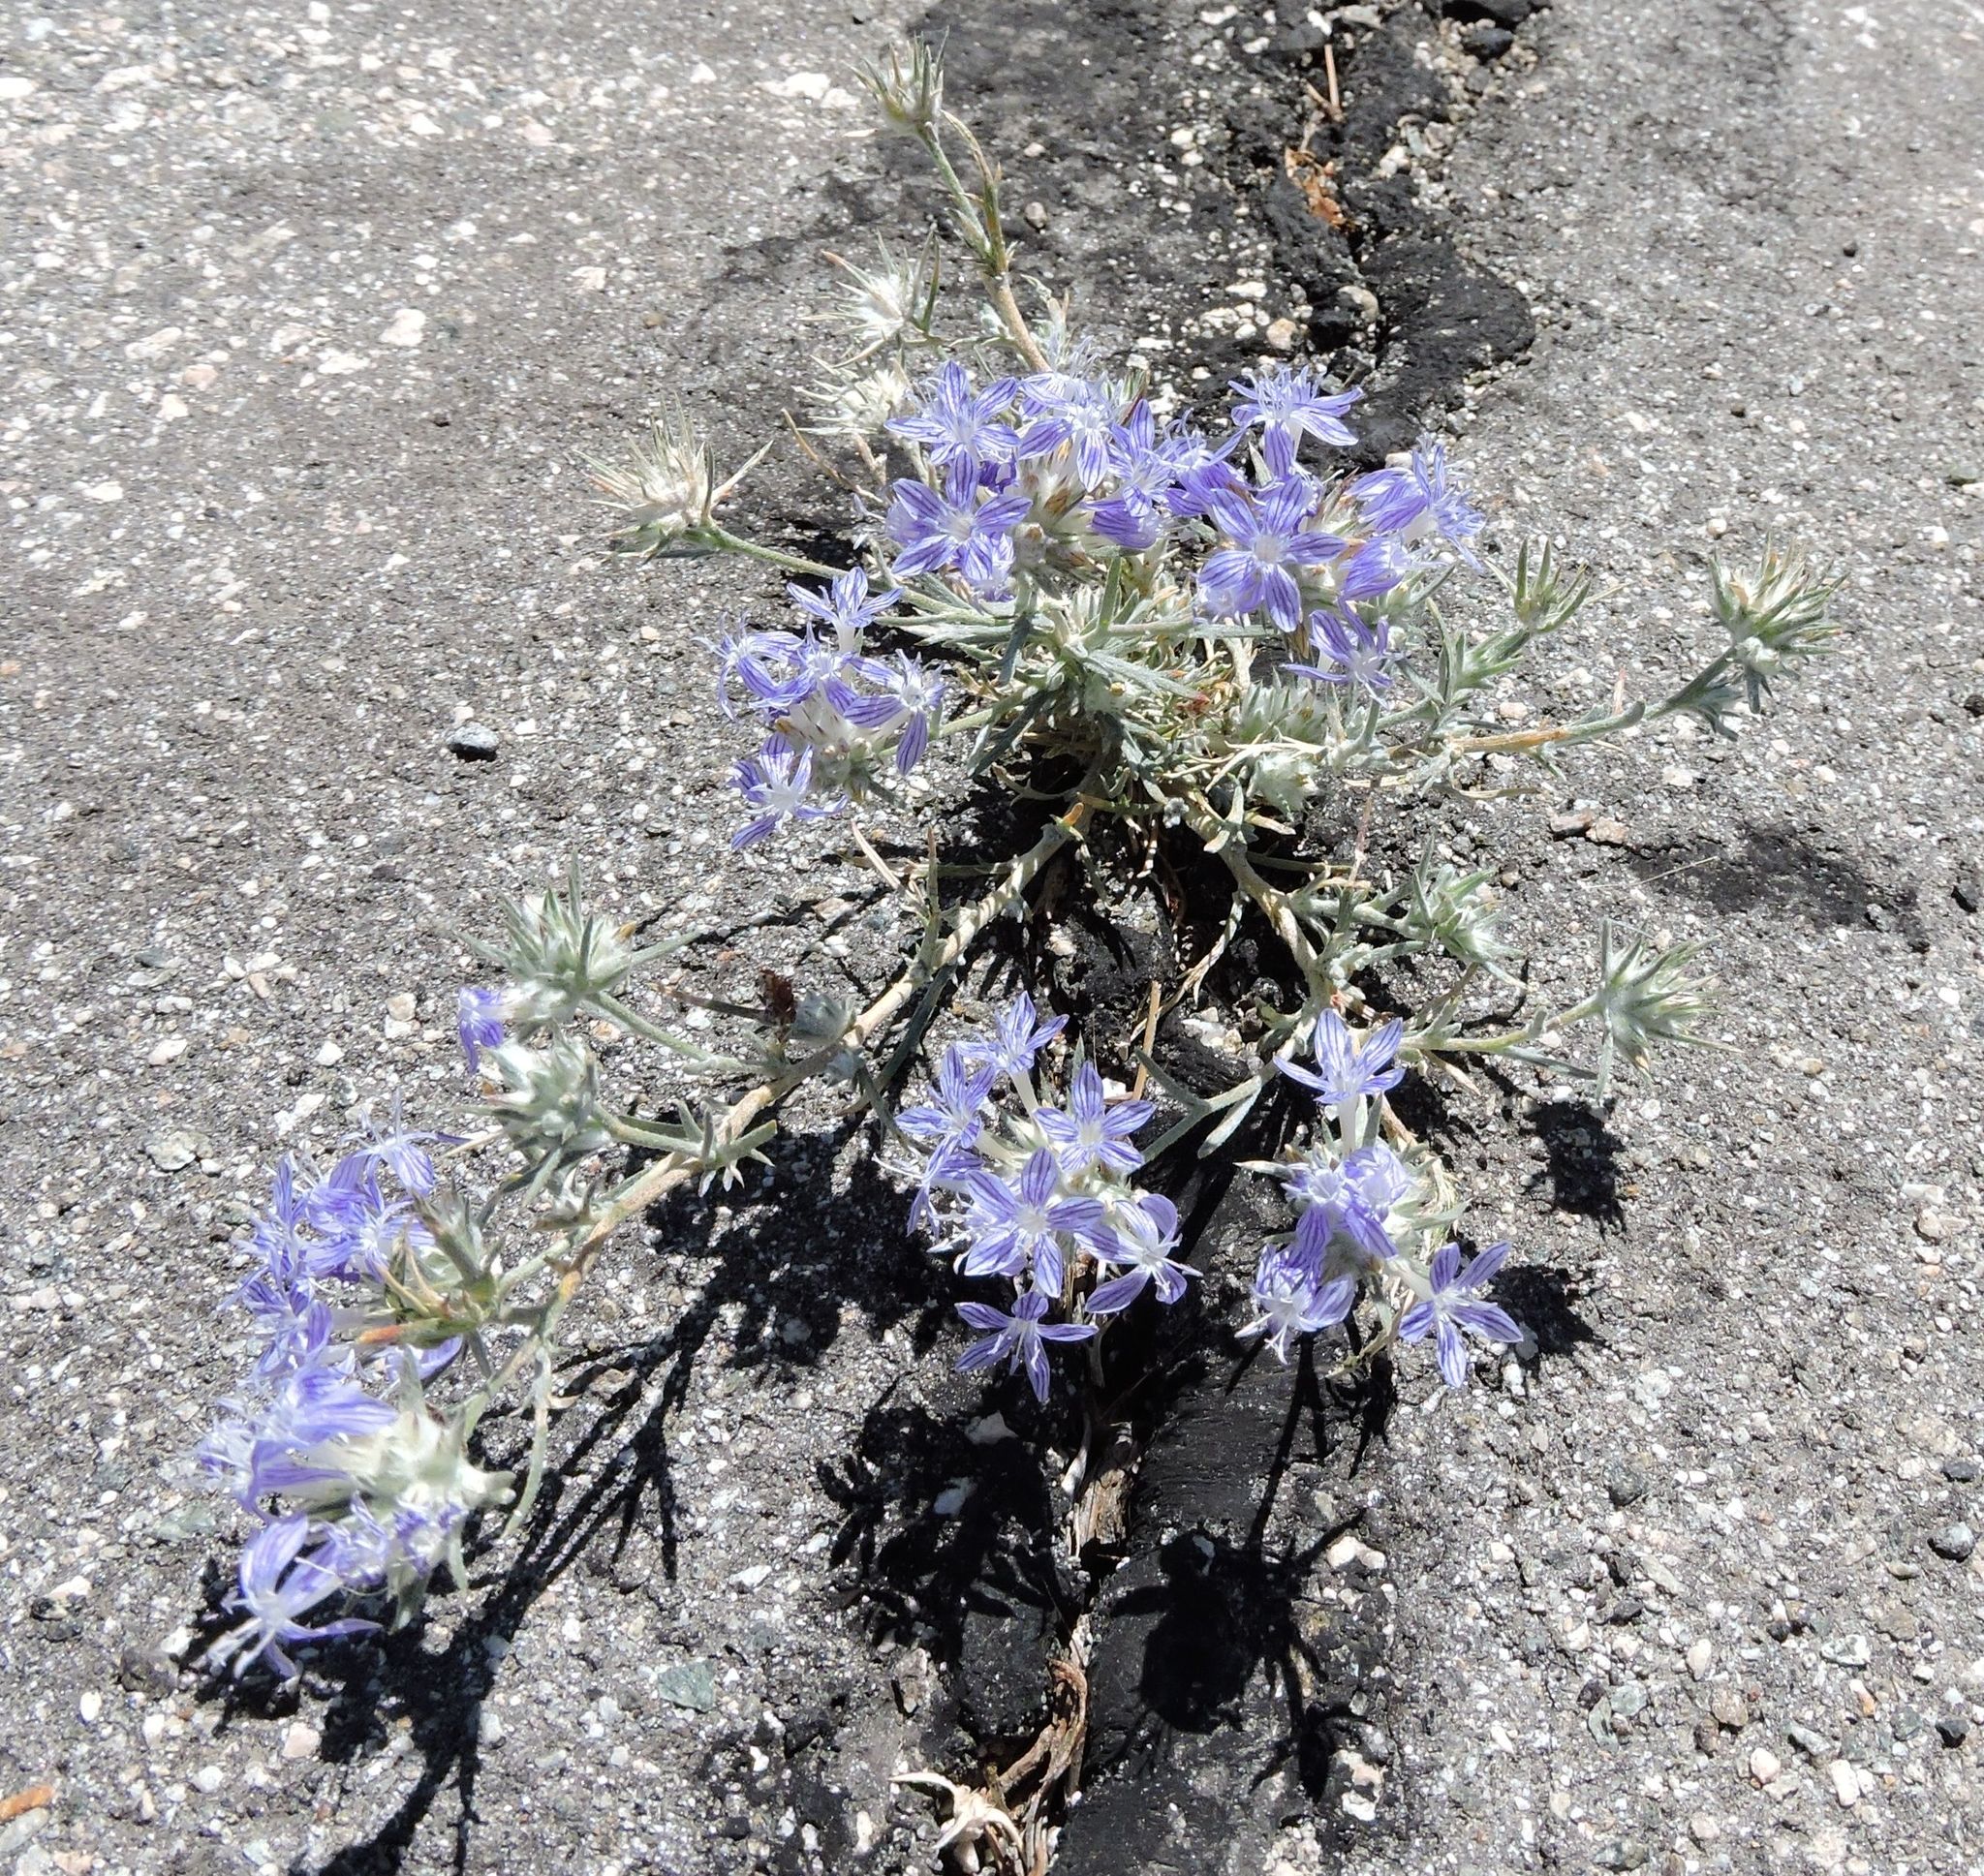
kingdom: Plantae
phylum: Tracheophyta
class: Magnoliopsida
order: Ericales
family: Polemoniaceae
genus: Eriastrum
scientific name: Eriastrum densifolium
